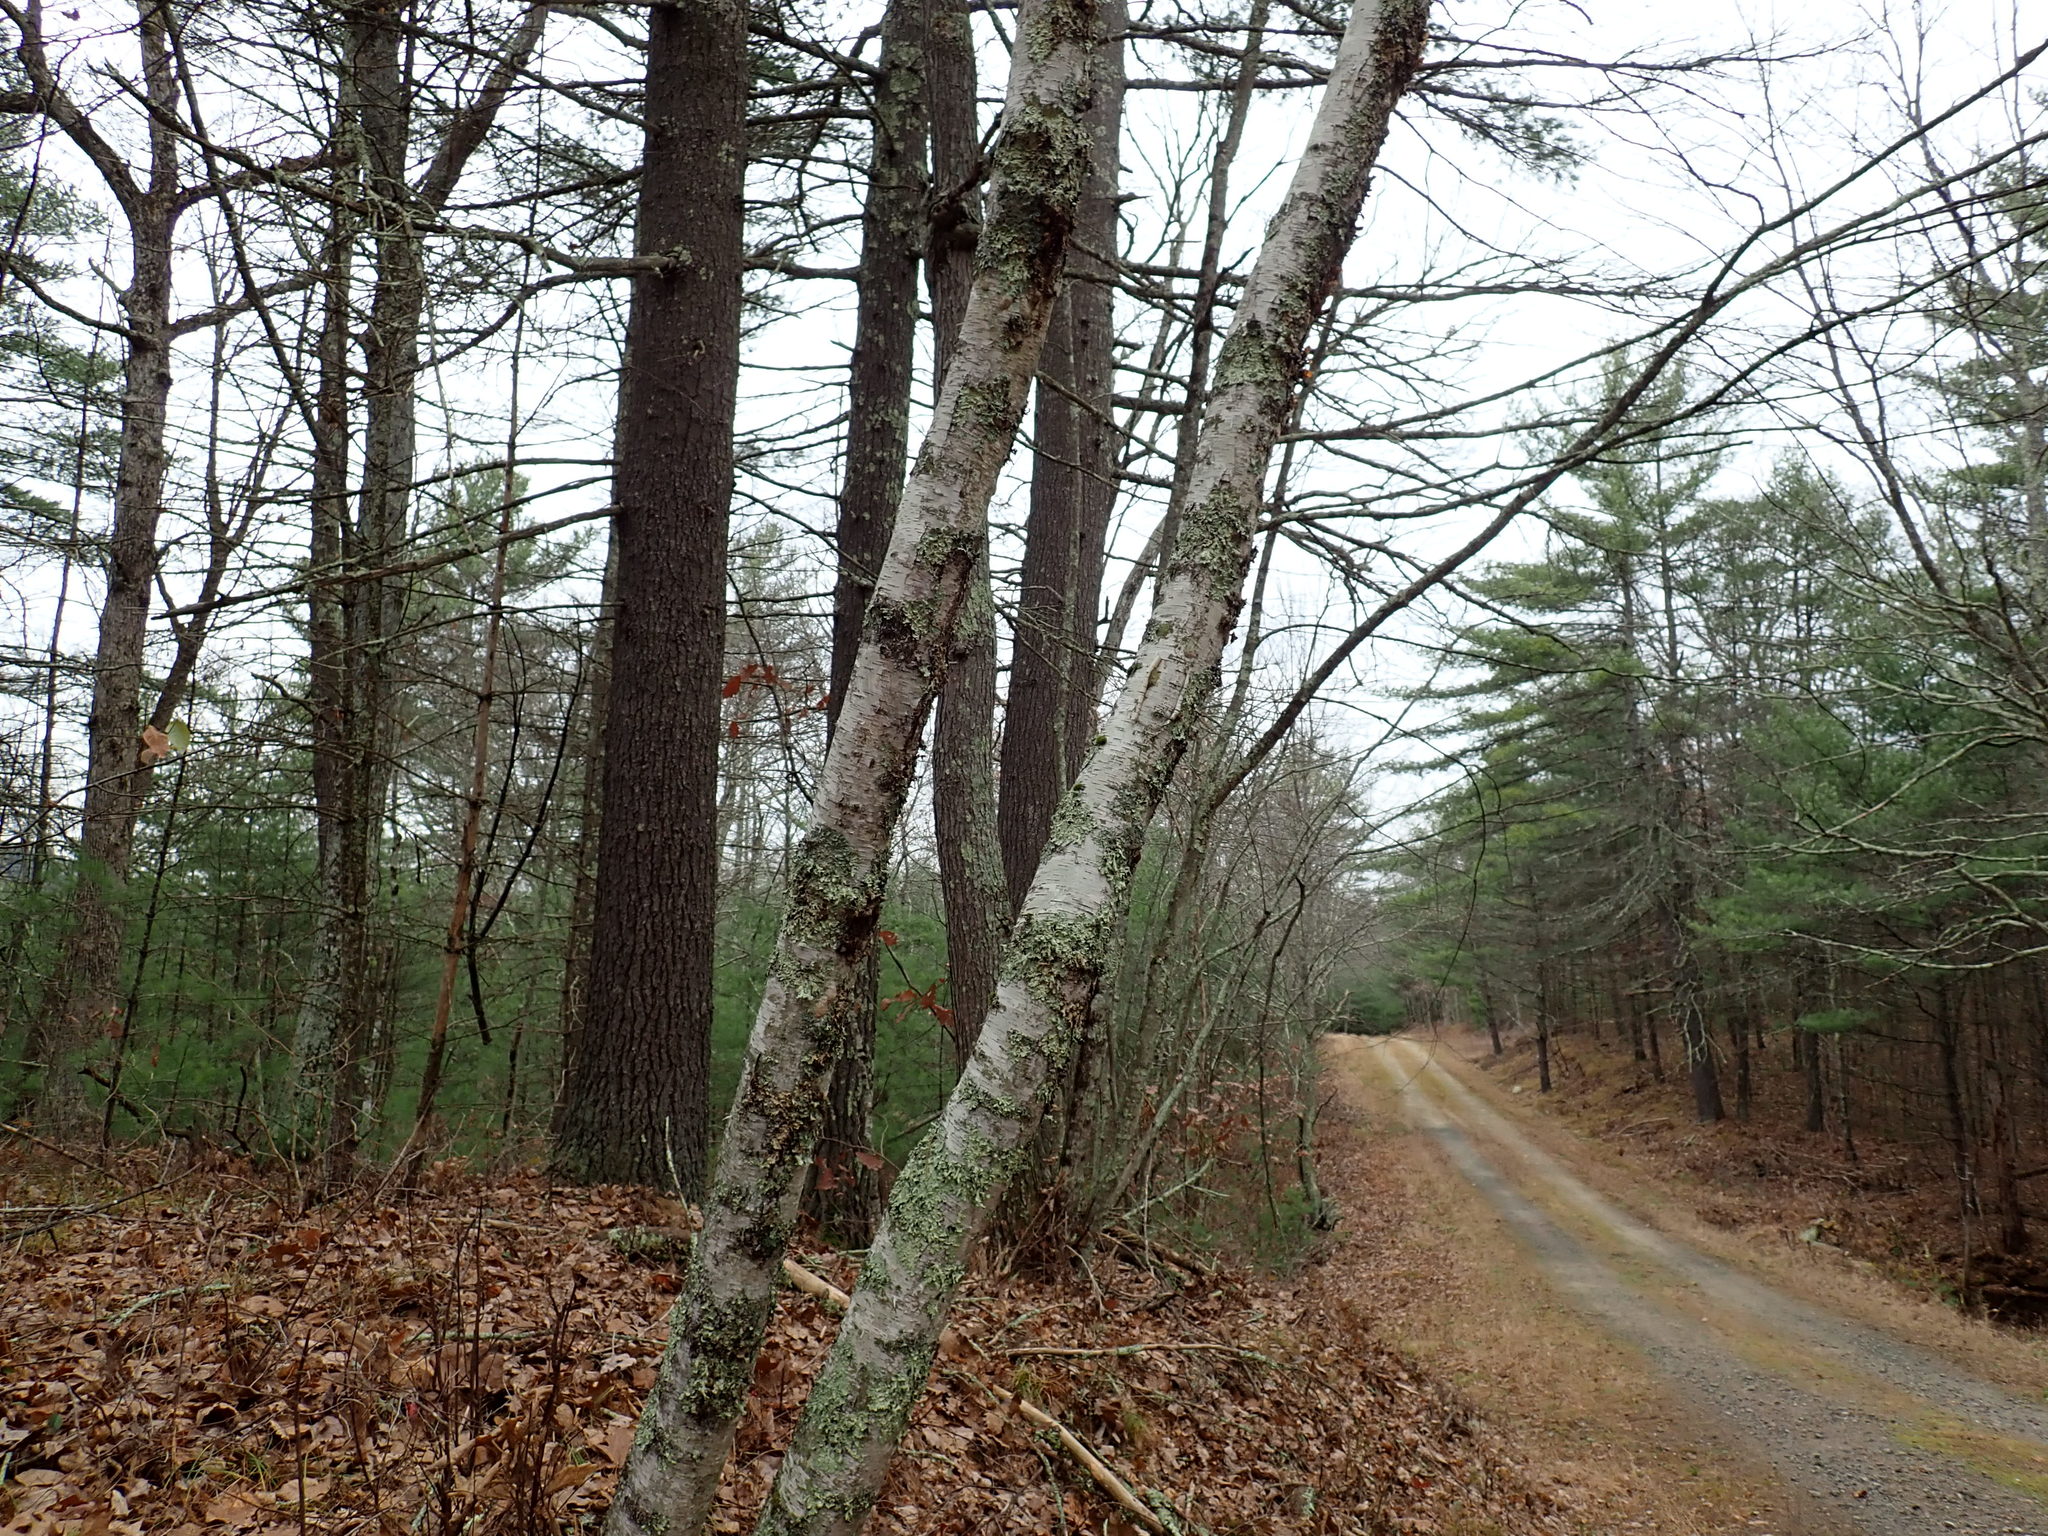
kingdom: Plantae
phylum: Tracheophyta
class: Magnoliopsida
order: Fagales
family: Betulaceae
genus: Betula
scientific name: Betula papyrifera
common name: Paper birch
